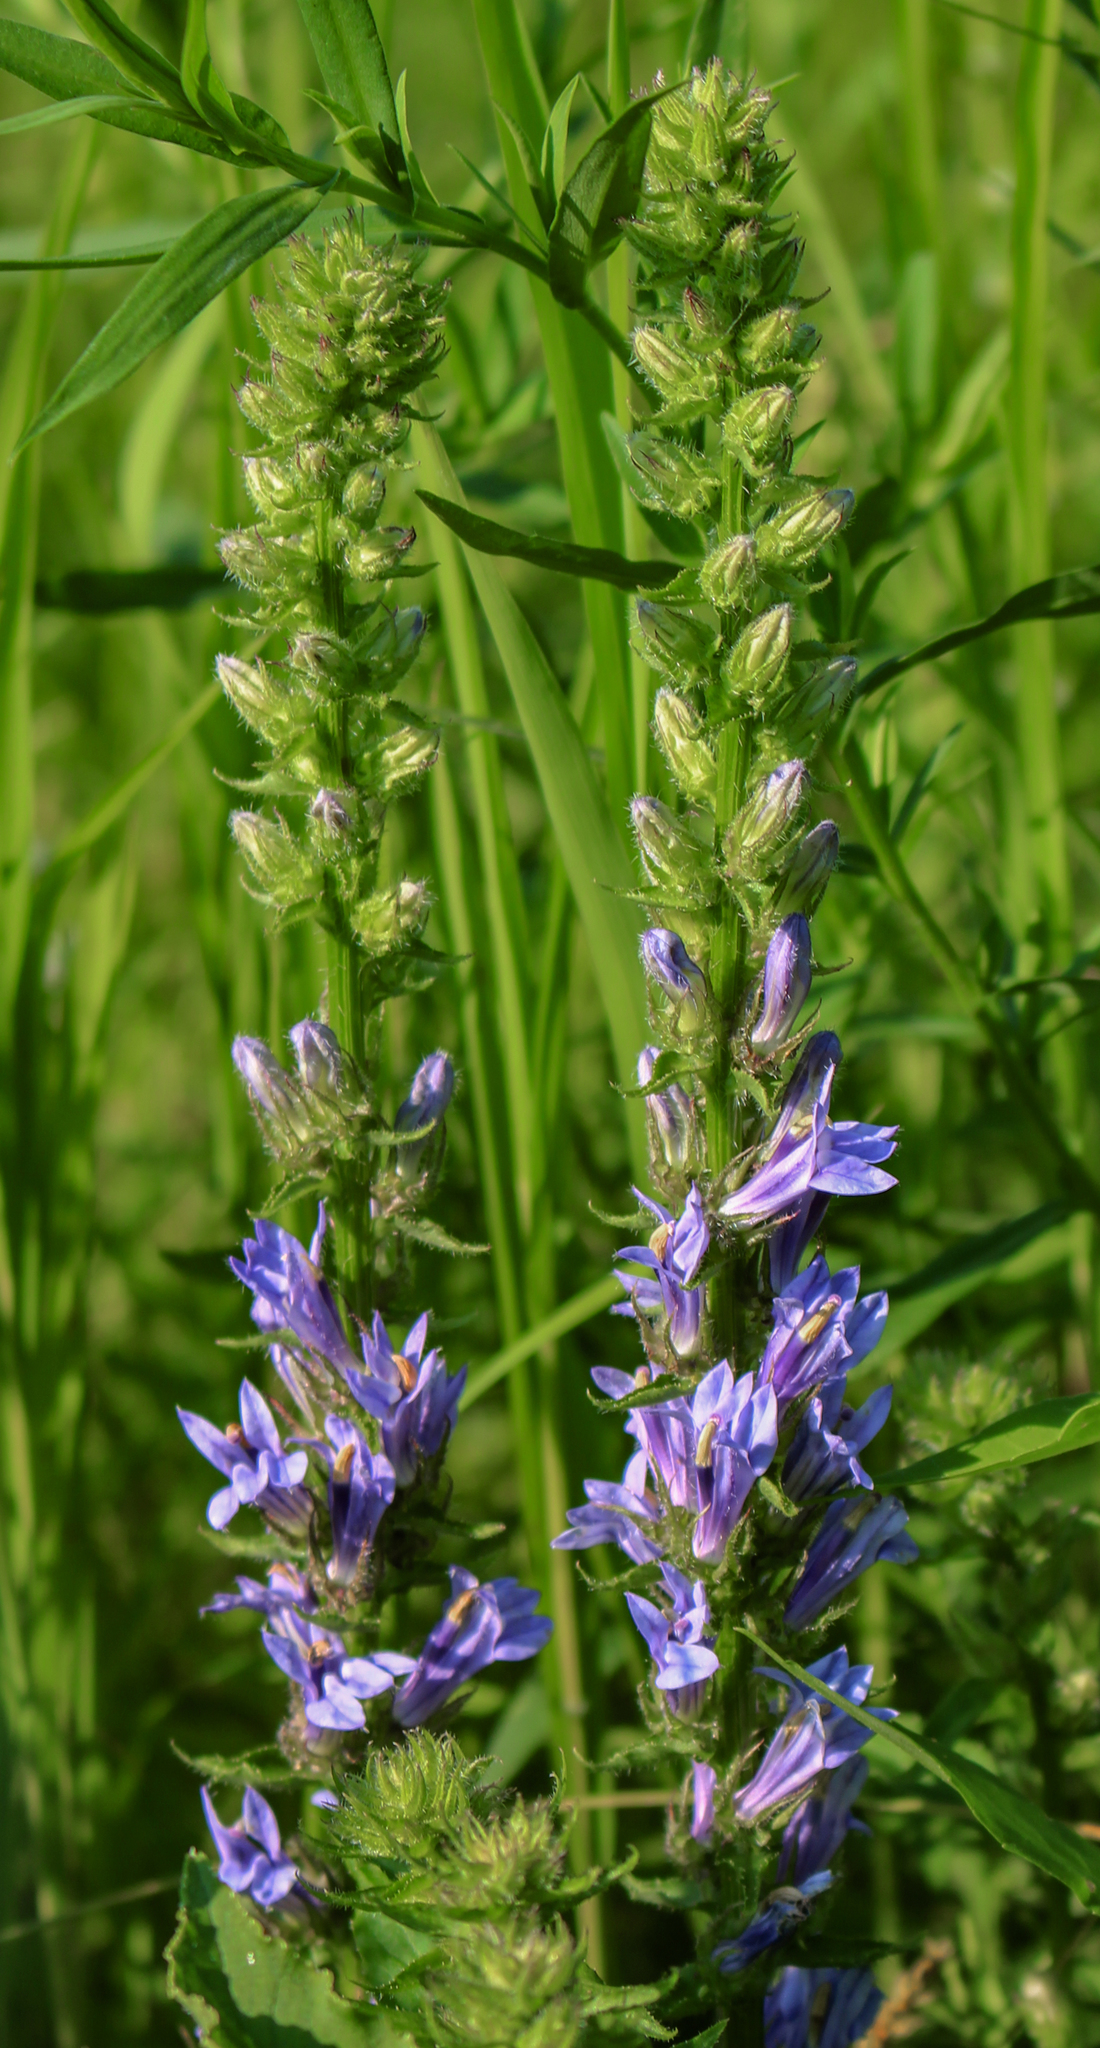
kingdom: Plantae
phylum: Tracheophyta
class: Magnoliopsida
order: Asterales
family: Campanulaceae
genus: Lobelia
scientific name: Lobelia siphilitica
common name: Great lobelia
